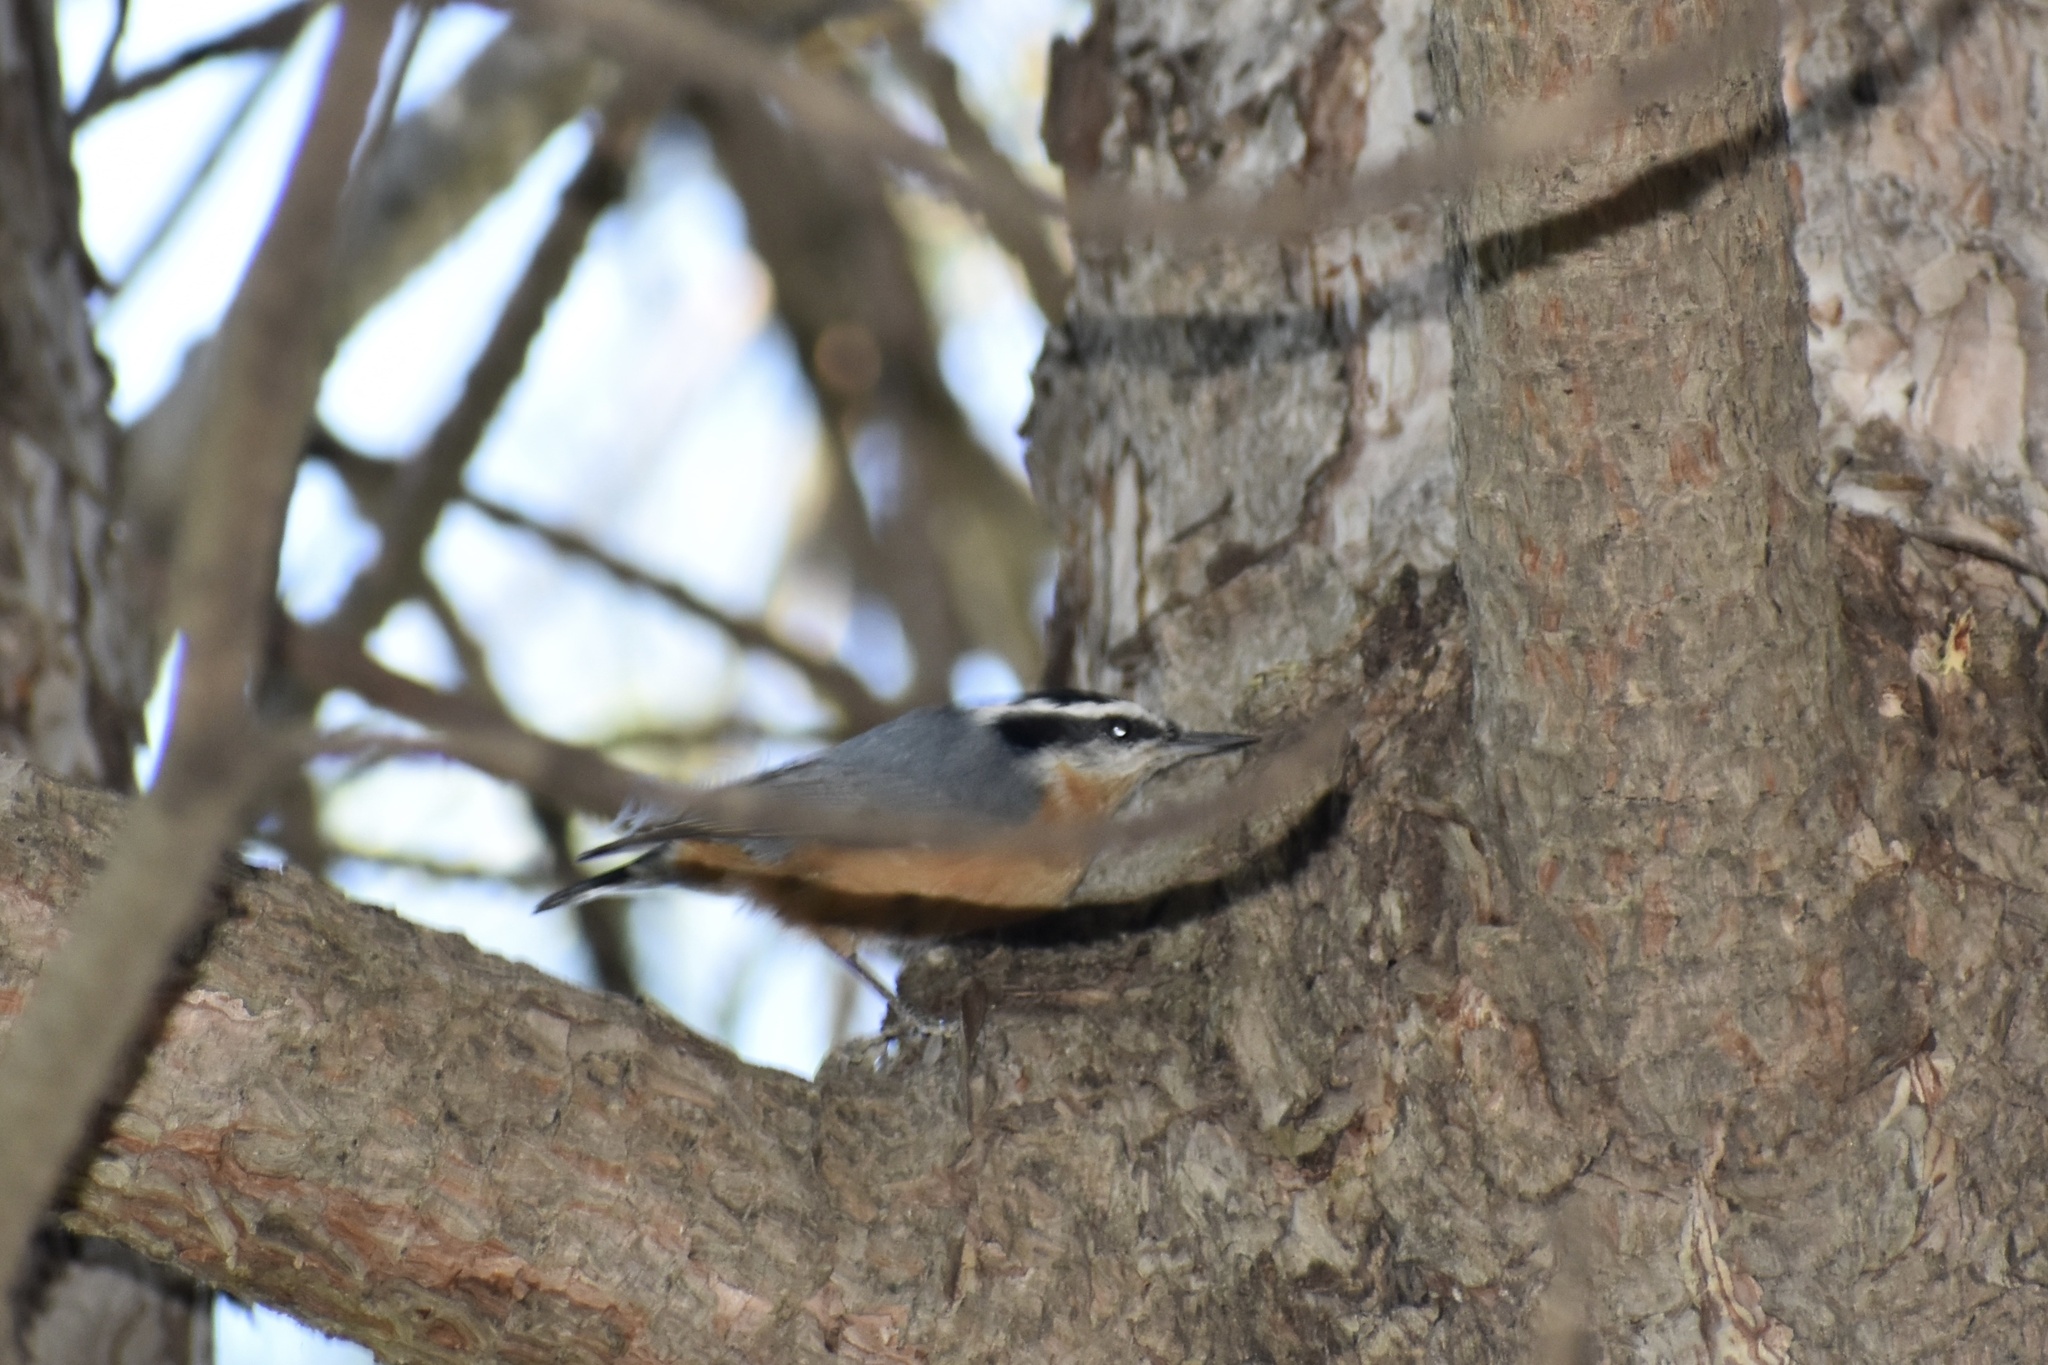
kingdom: Animalia
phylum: Chordata
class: Aves
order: Passeriformes
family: Sittidae
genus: Sitta
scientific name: Sitta canadensis
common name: Red-breasted nuthatch
